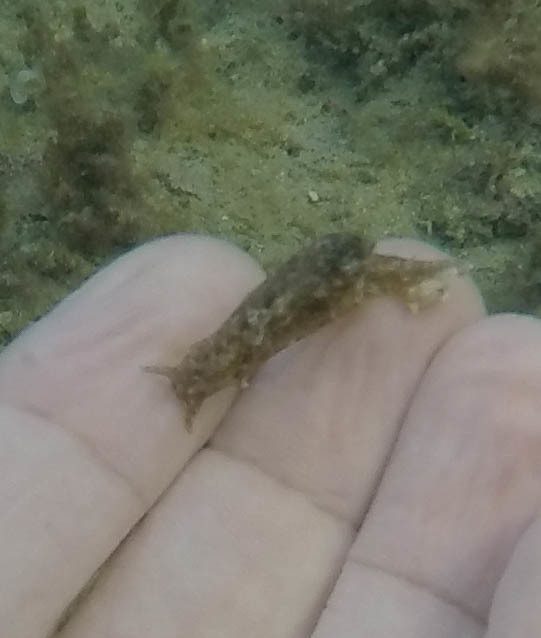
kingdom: Animalia
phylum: Mollusca
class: Gastropoda
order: Aplysiida
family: Aplysiidae
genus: Stylocheilus
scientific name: Stylocheilus striatus
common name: Striated seahare
